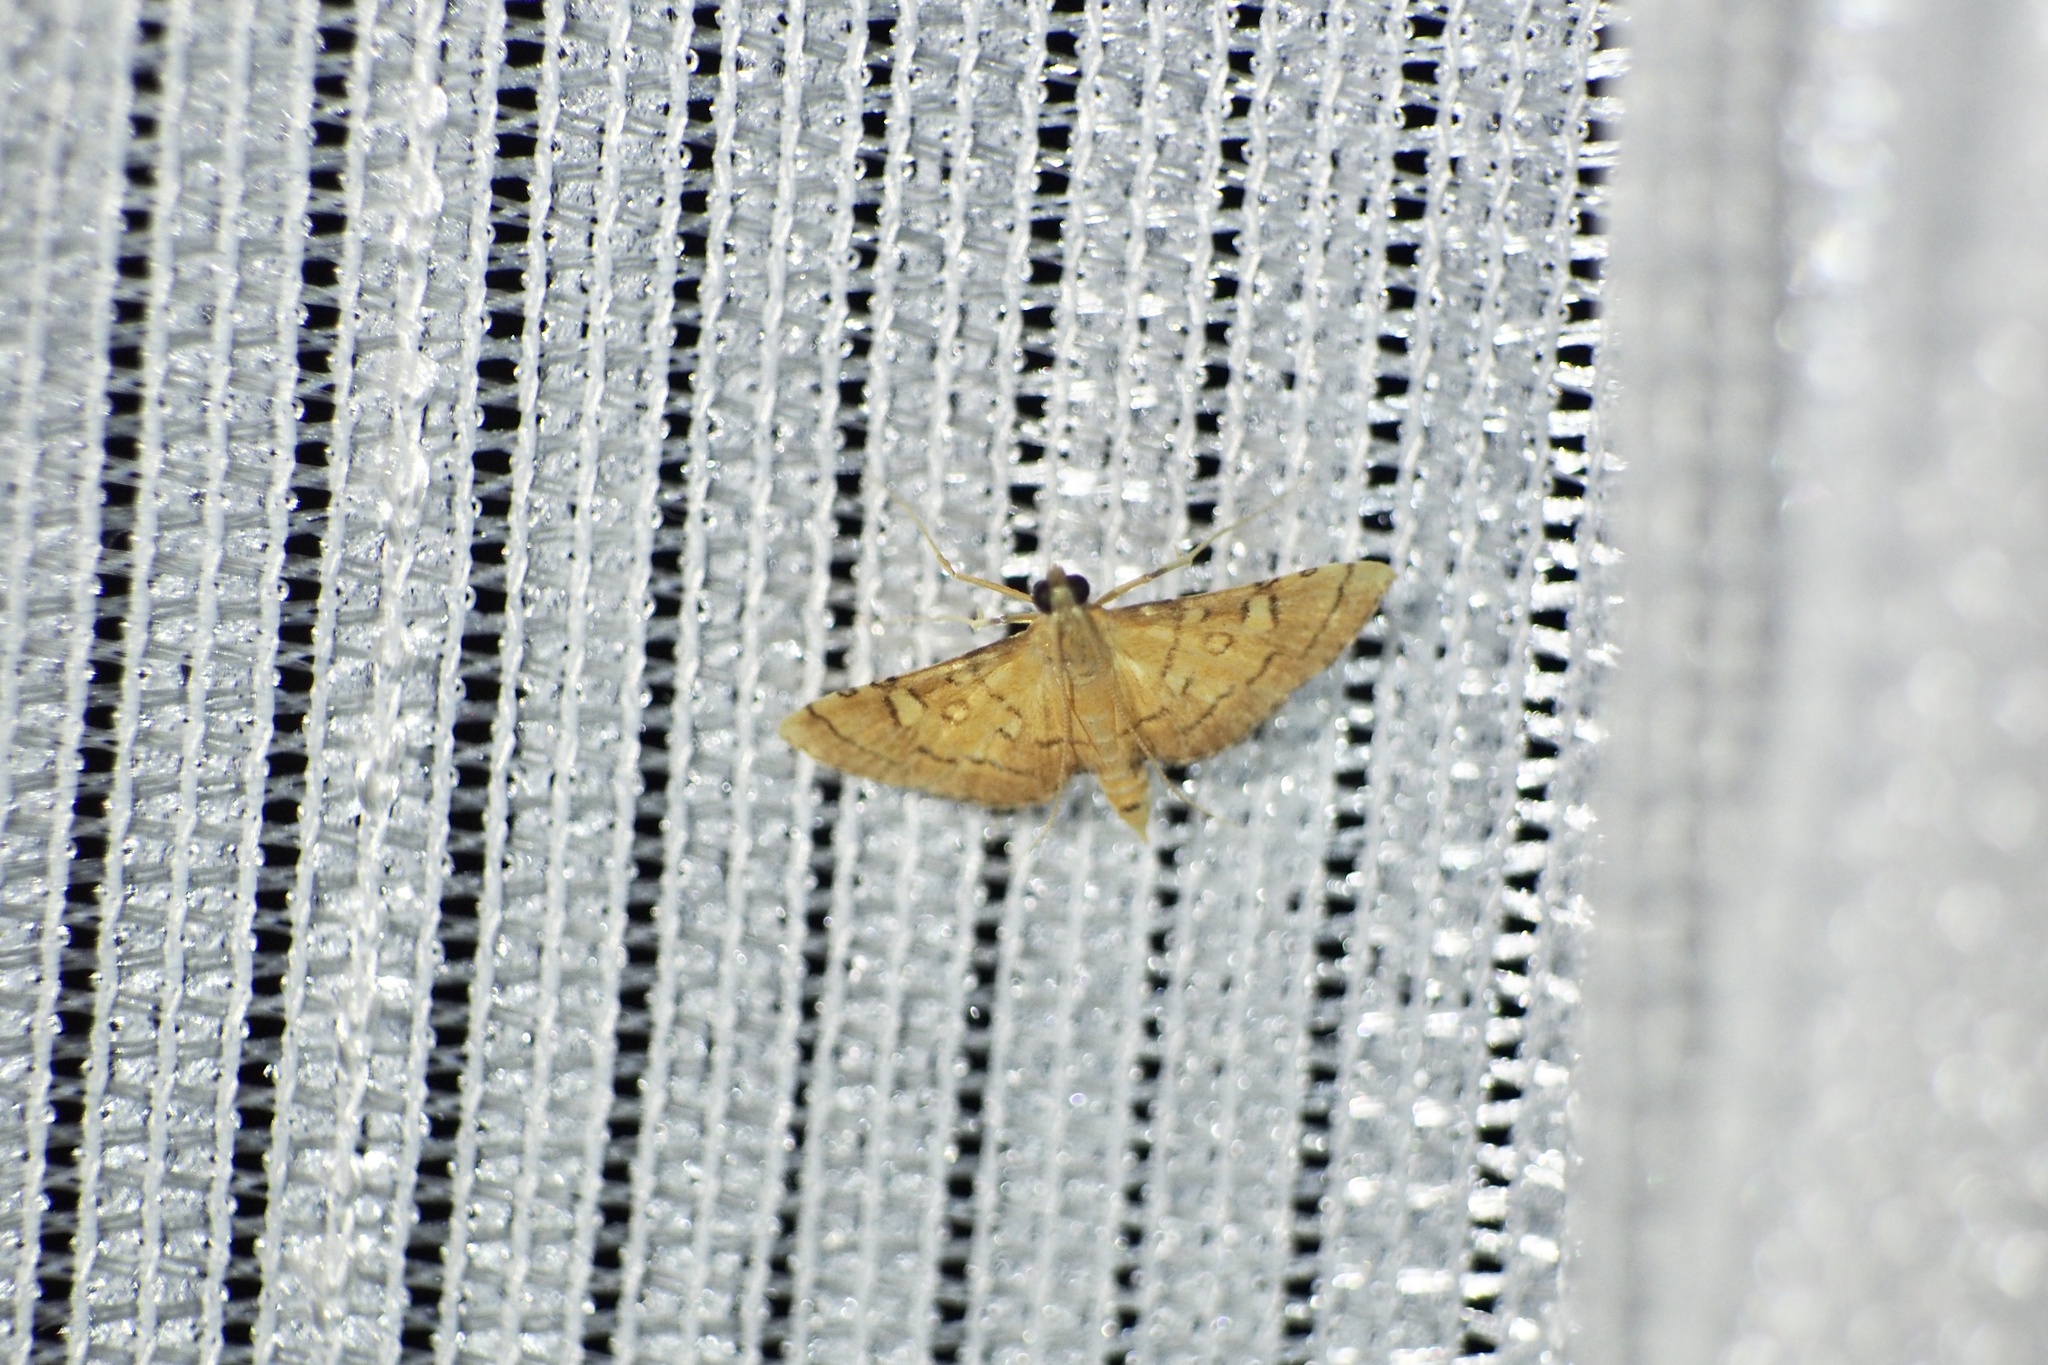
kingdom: Animalia
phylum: Arthropoda
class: Insecta
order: Lepidoptera
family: Crambidae
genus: Mabra
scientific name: Mabra charonialis
